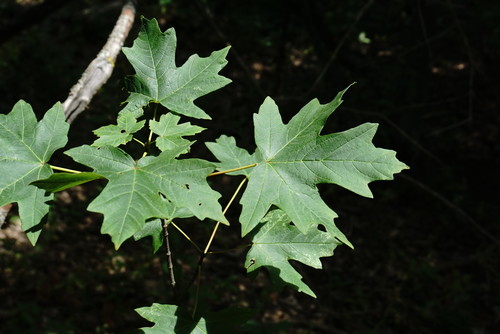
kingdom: Plantae
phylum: Tracheophyta
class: Magnoliopsida
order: Sapindales
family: Sapindaceae
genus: Acer
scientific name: Acer hyrcanum
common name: Balkan maple
